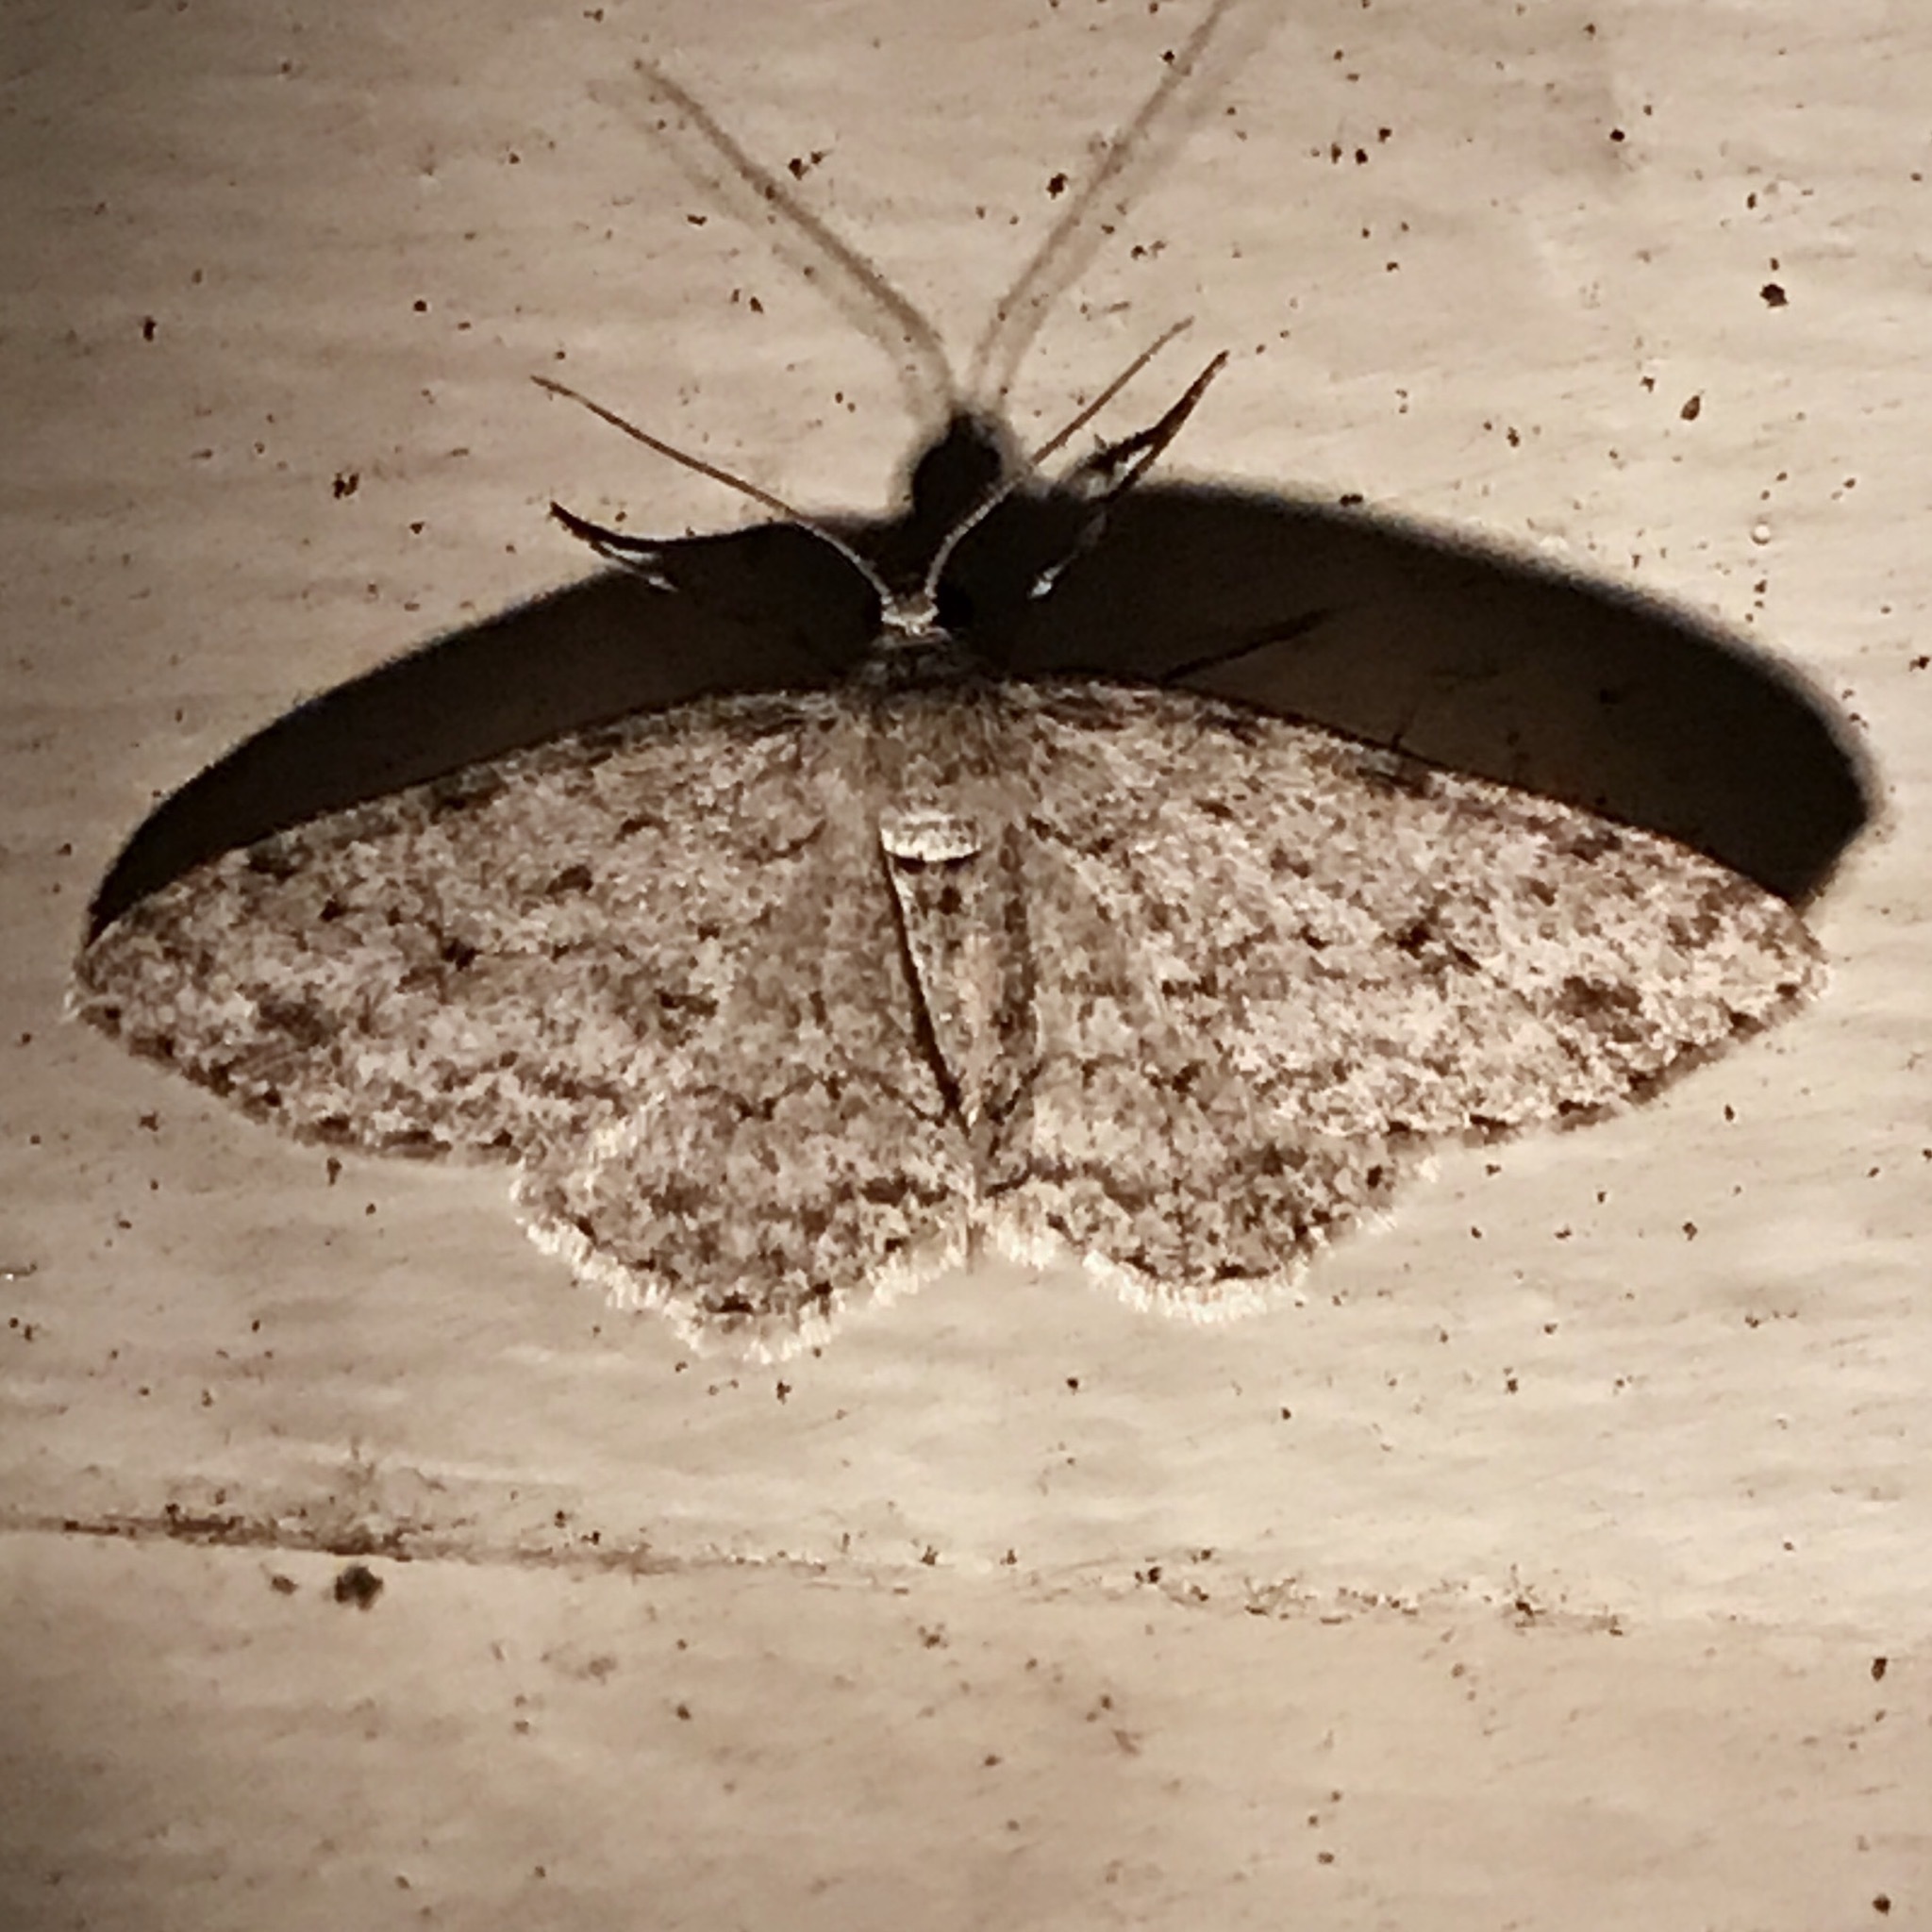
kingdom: Animalia
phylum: Arthropoda
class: Insecta
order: Lepidoptera
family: Geometridae
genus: Ectropis
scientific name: Ectropis crepuscularia
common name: Engrailed
